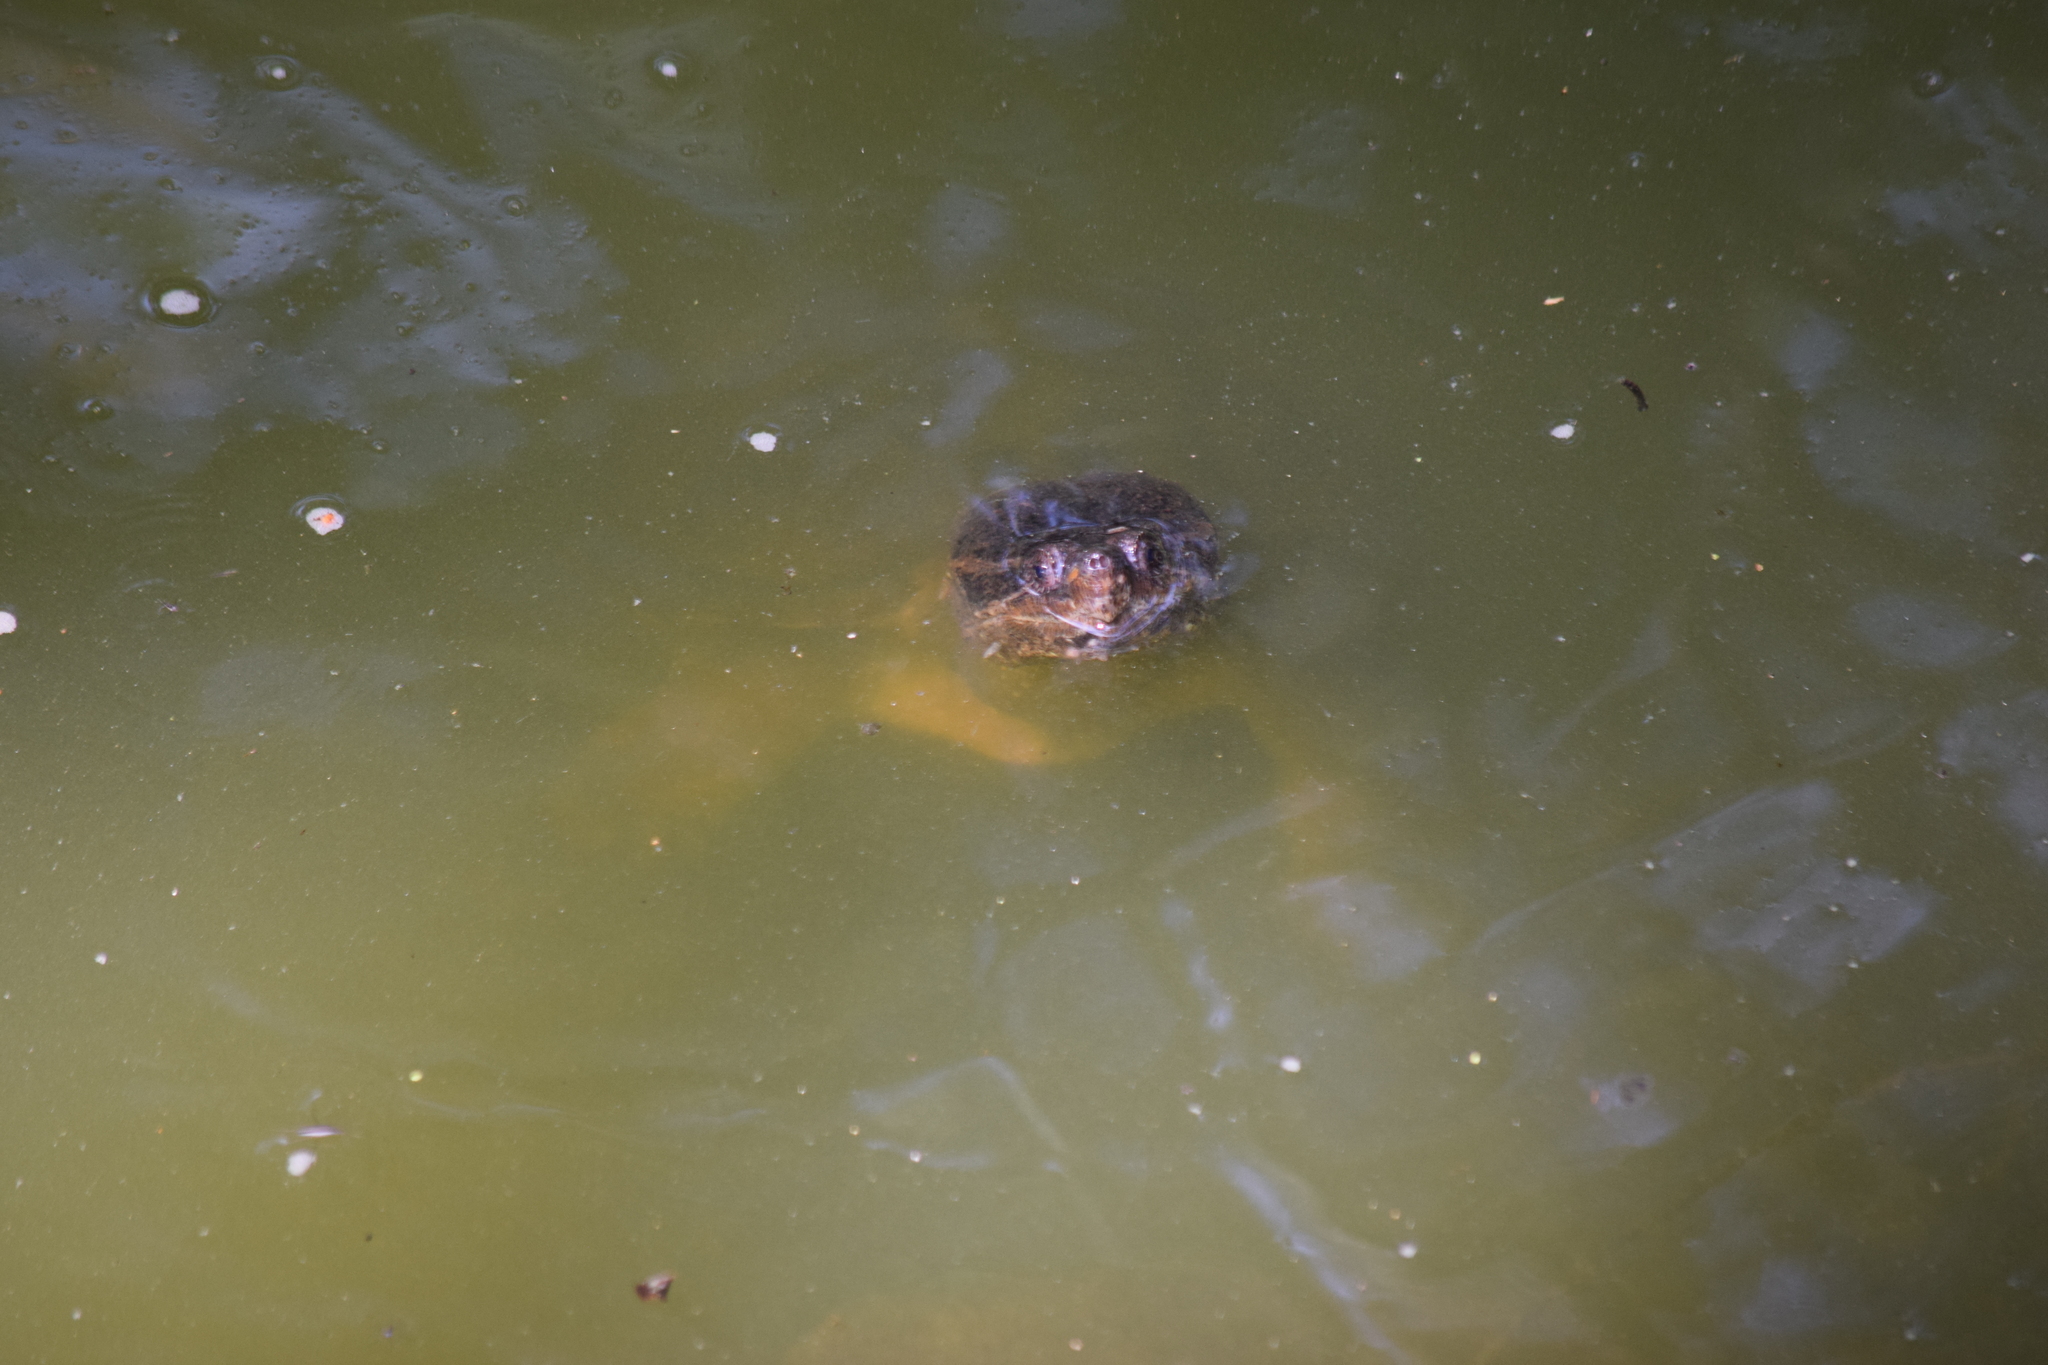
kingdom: Animalia
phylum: Chordata
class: Testudines
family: Chelydridae
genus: Chelydra
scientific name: Chelydra serpentina
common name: Common snapping turtle
